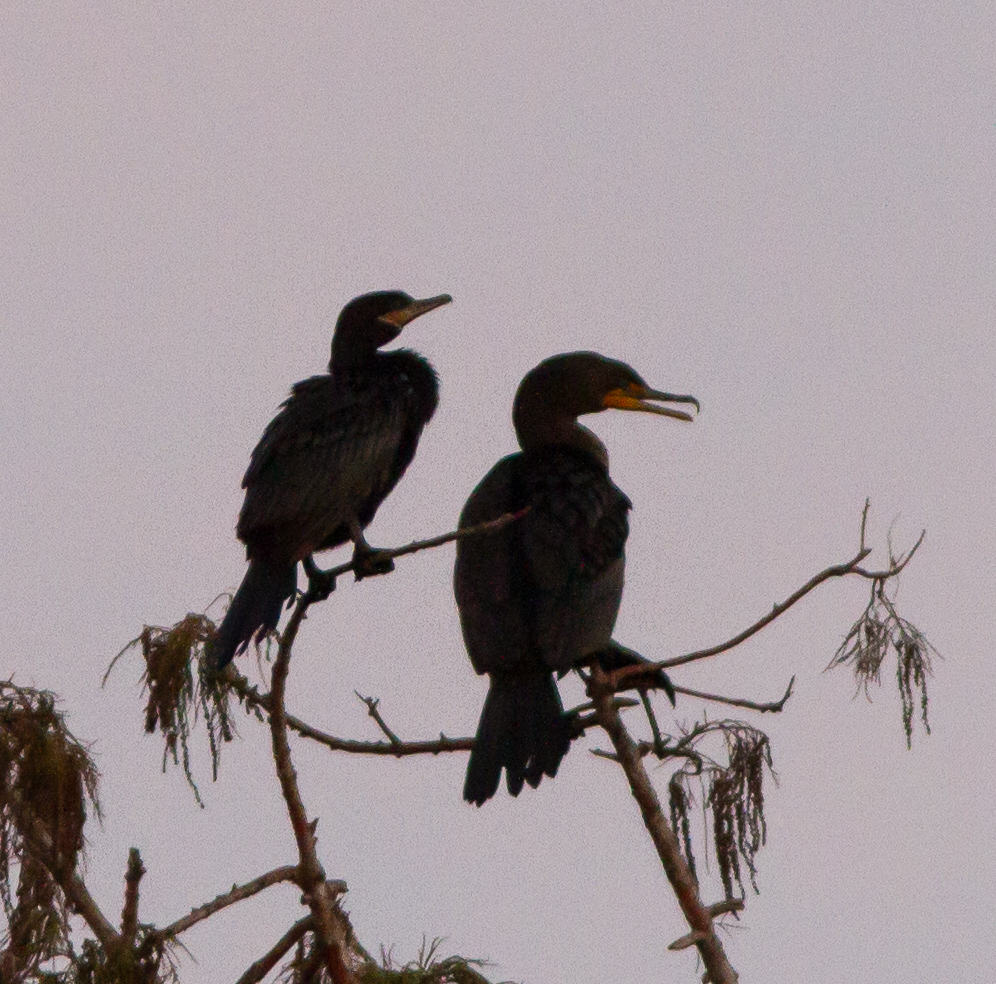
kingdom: Animalia
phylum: Chordata
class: Aves
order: Suliformes
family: Phalacrocoracidae
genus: Phalacrocorax
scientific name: Phalacrocorax brasilianus
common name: Neotropic cormorant
